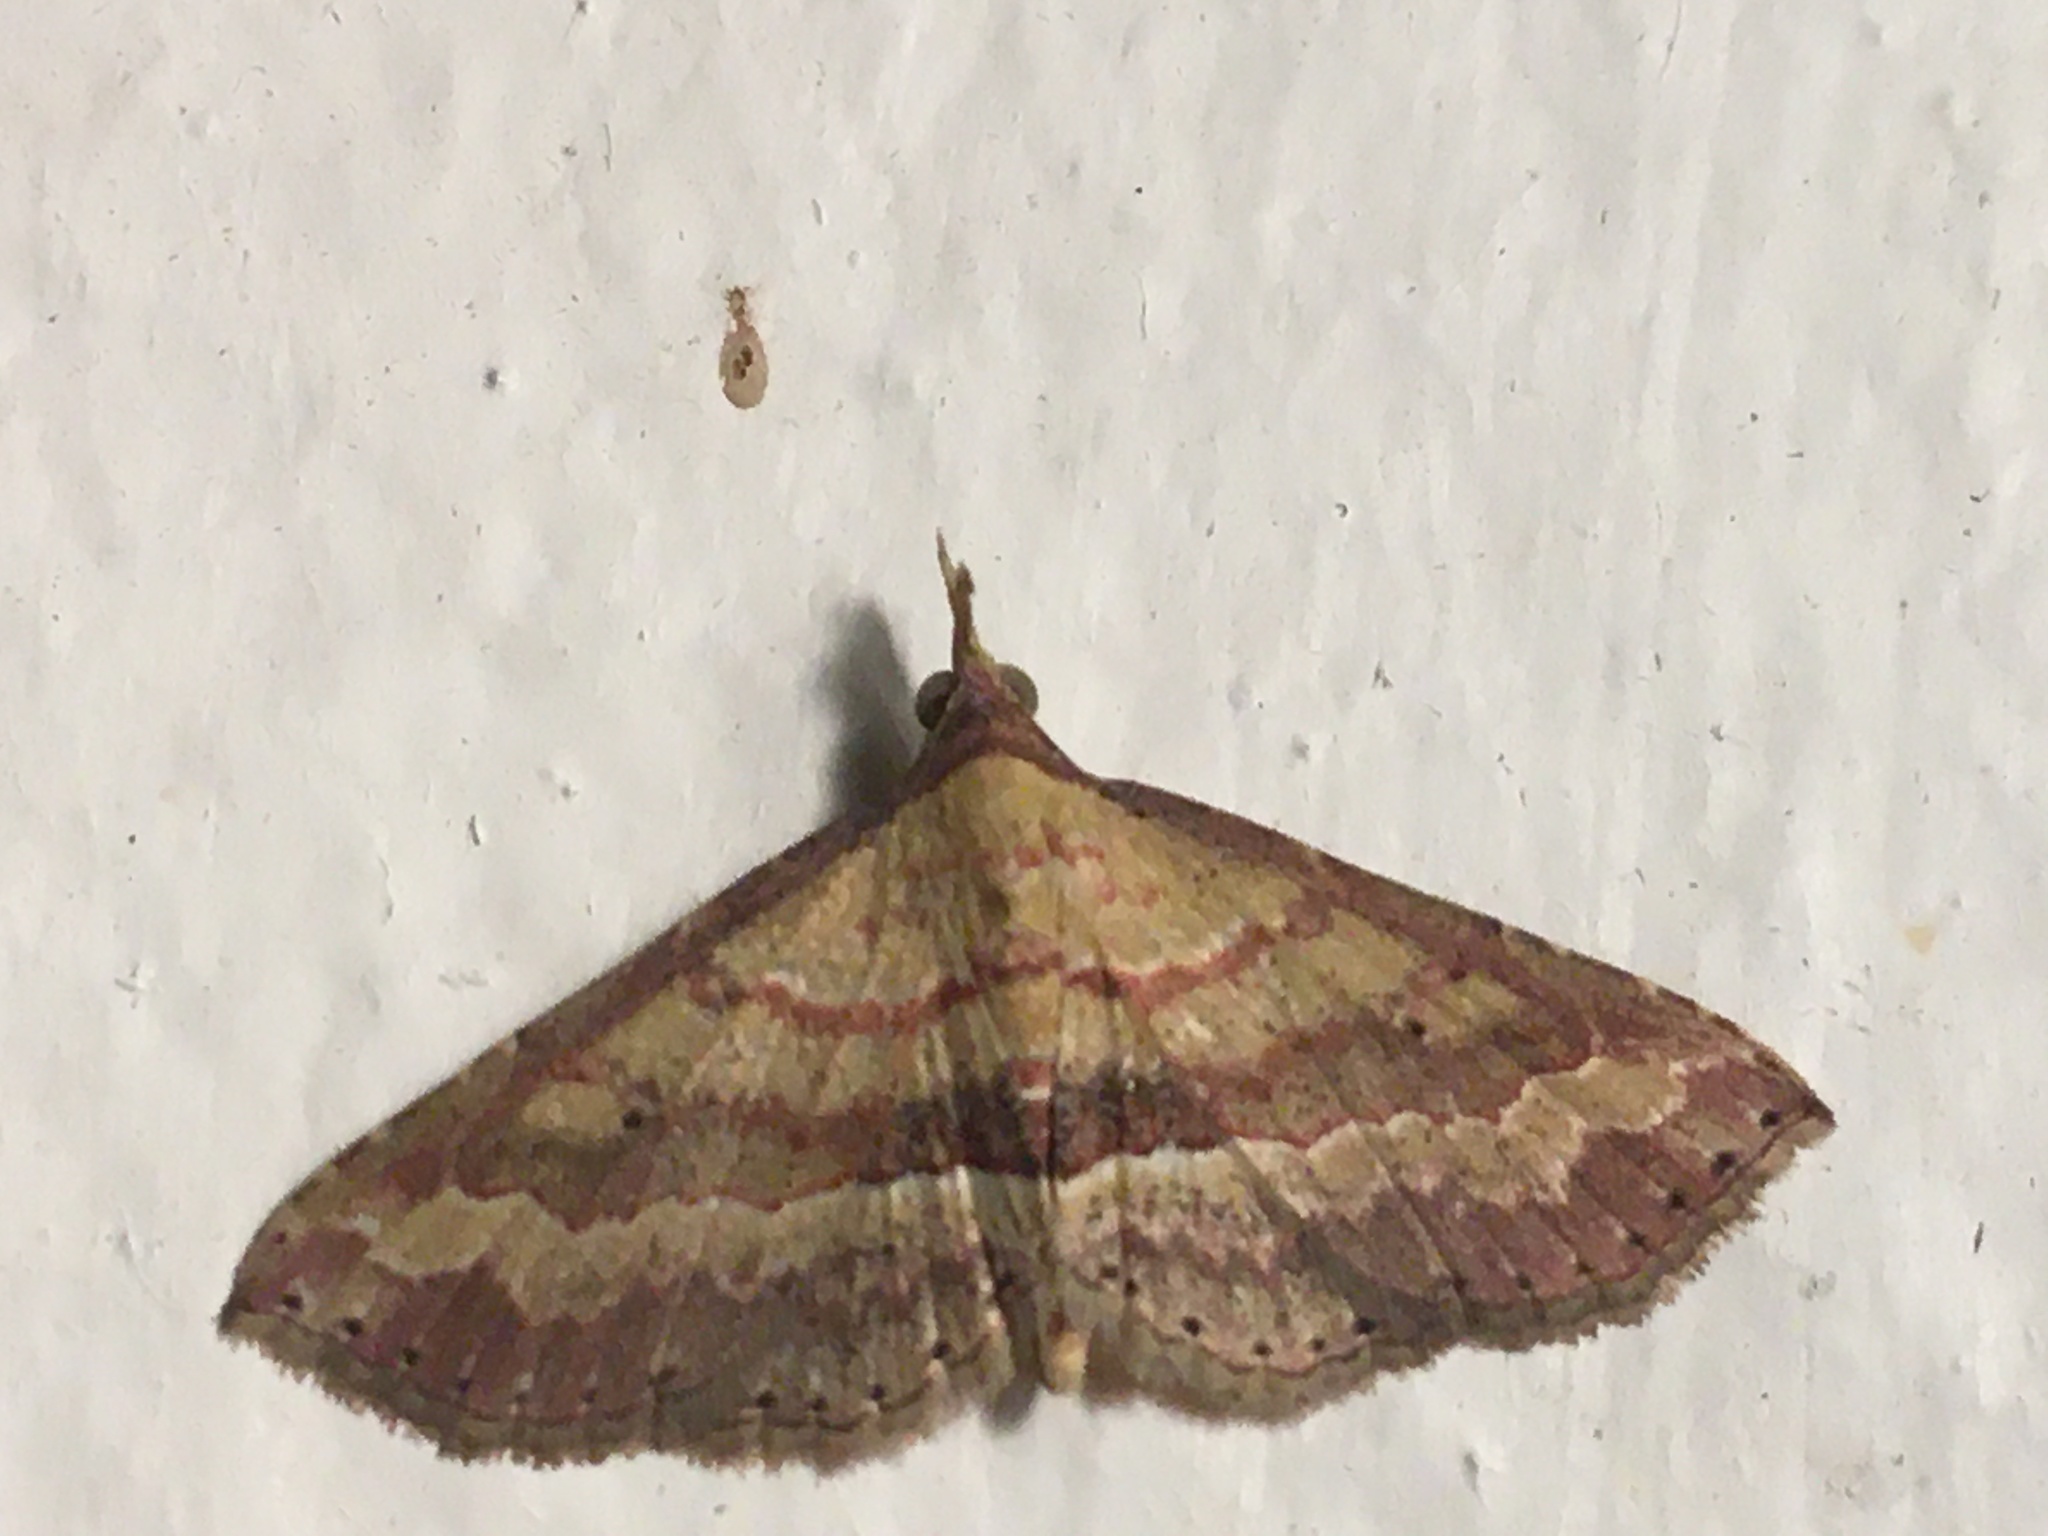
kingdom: Animalia
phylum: Arthropoda
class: Insecta
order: Lepidoptera
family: Erebidae
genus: Mursa
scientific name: Mursa phtisialis
